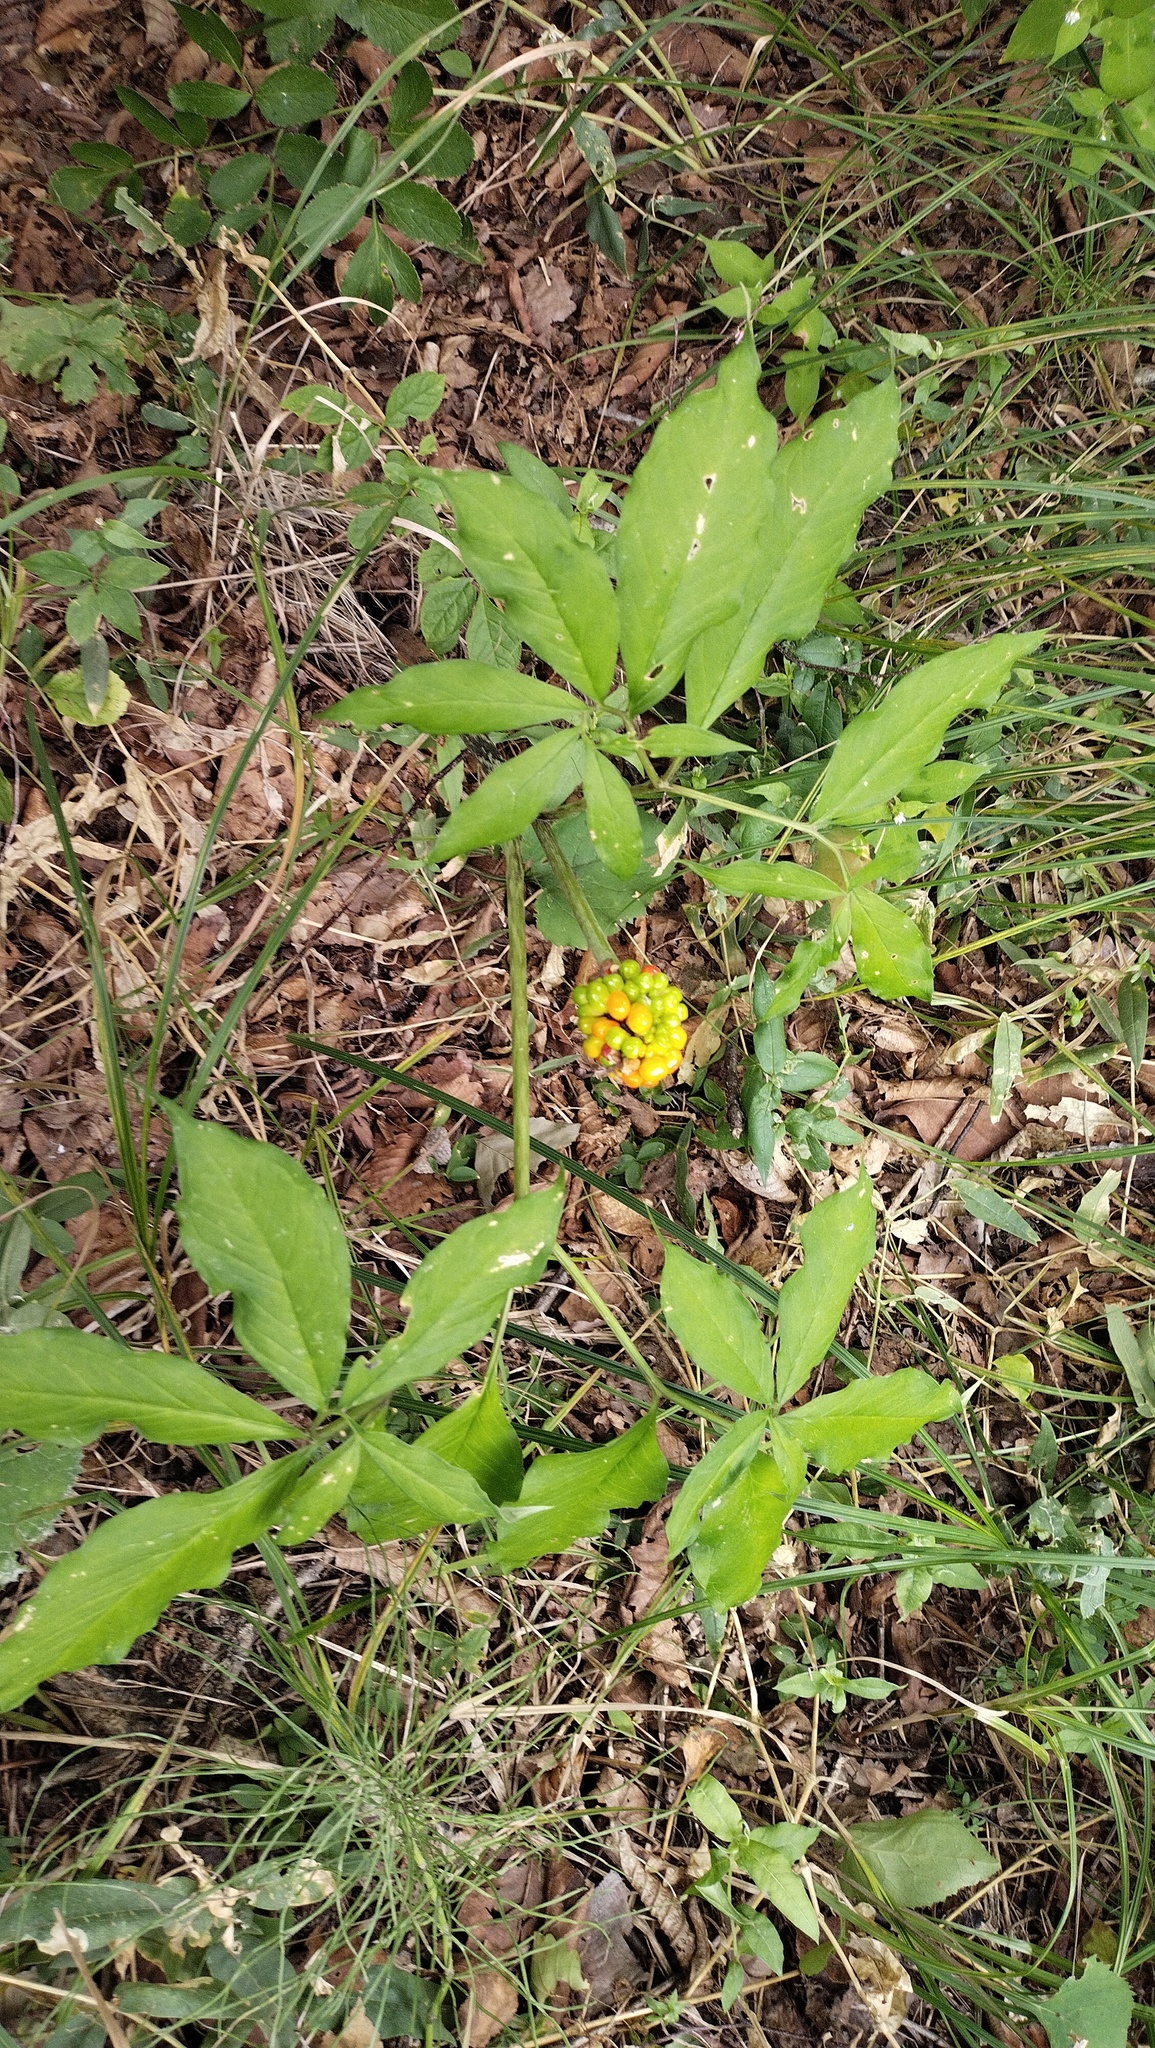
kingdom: Plantae
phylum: Tracheophyta
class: Liliopsida
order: Alismatales
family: Araceae
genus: Arisaema
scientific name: Arisaema serratum
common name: Japanese arisaema
